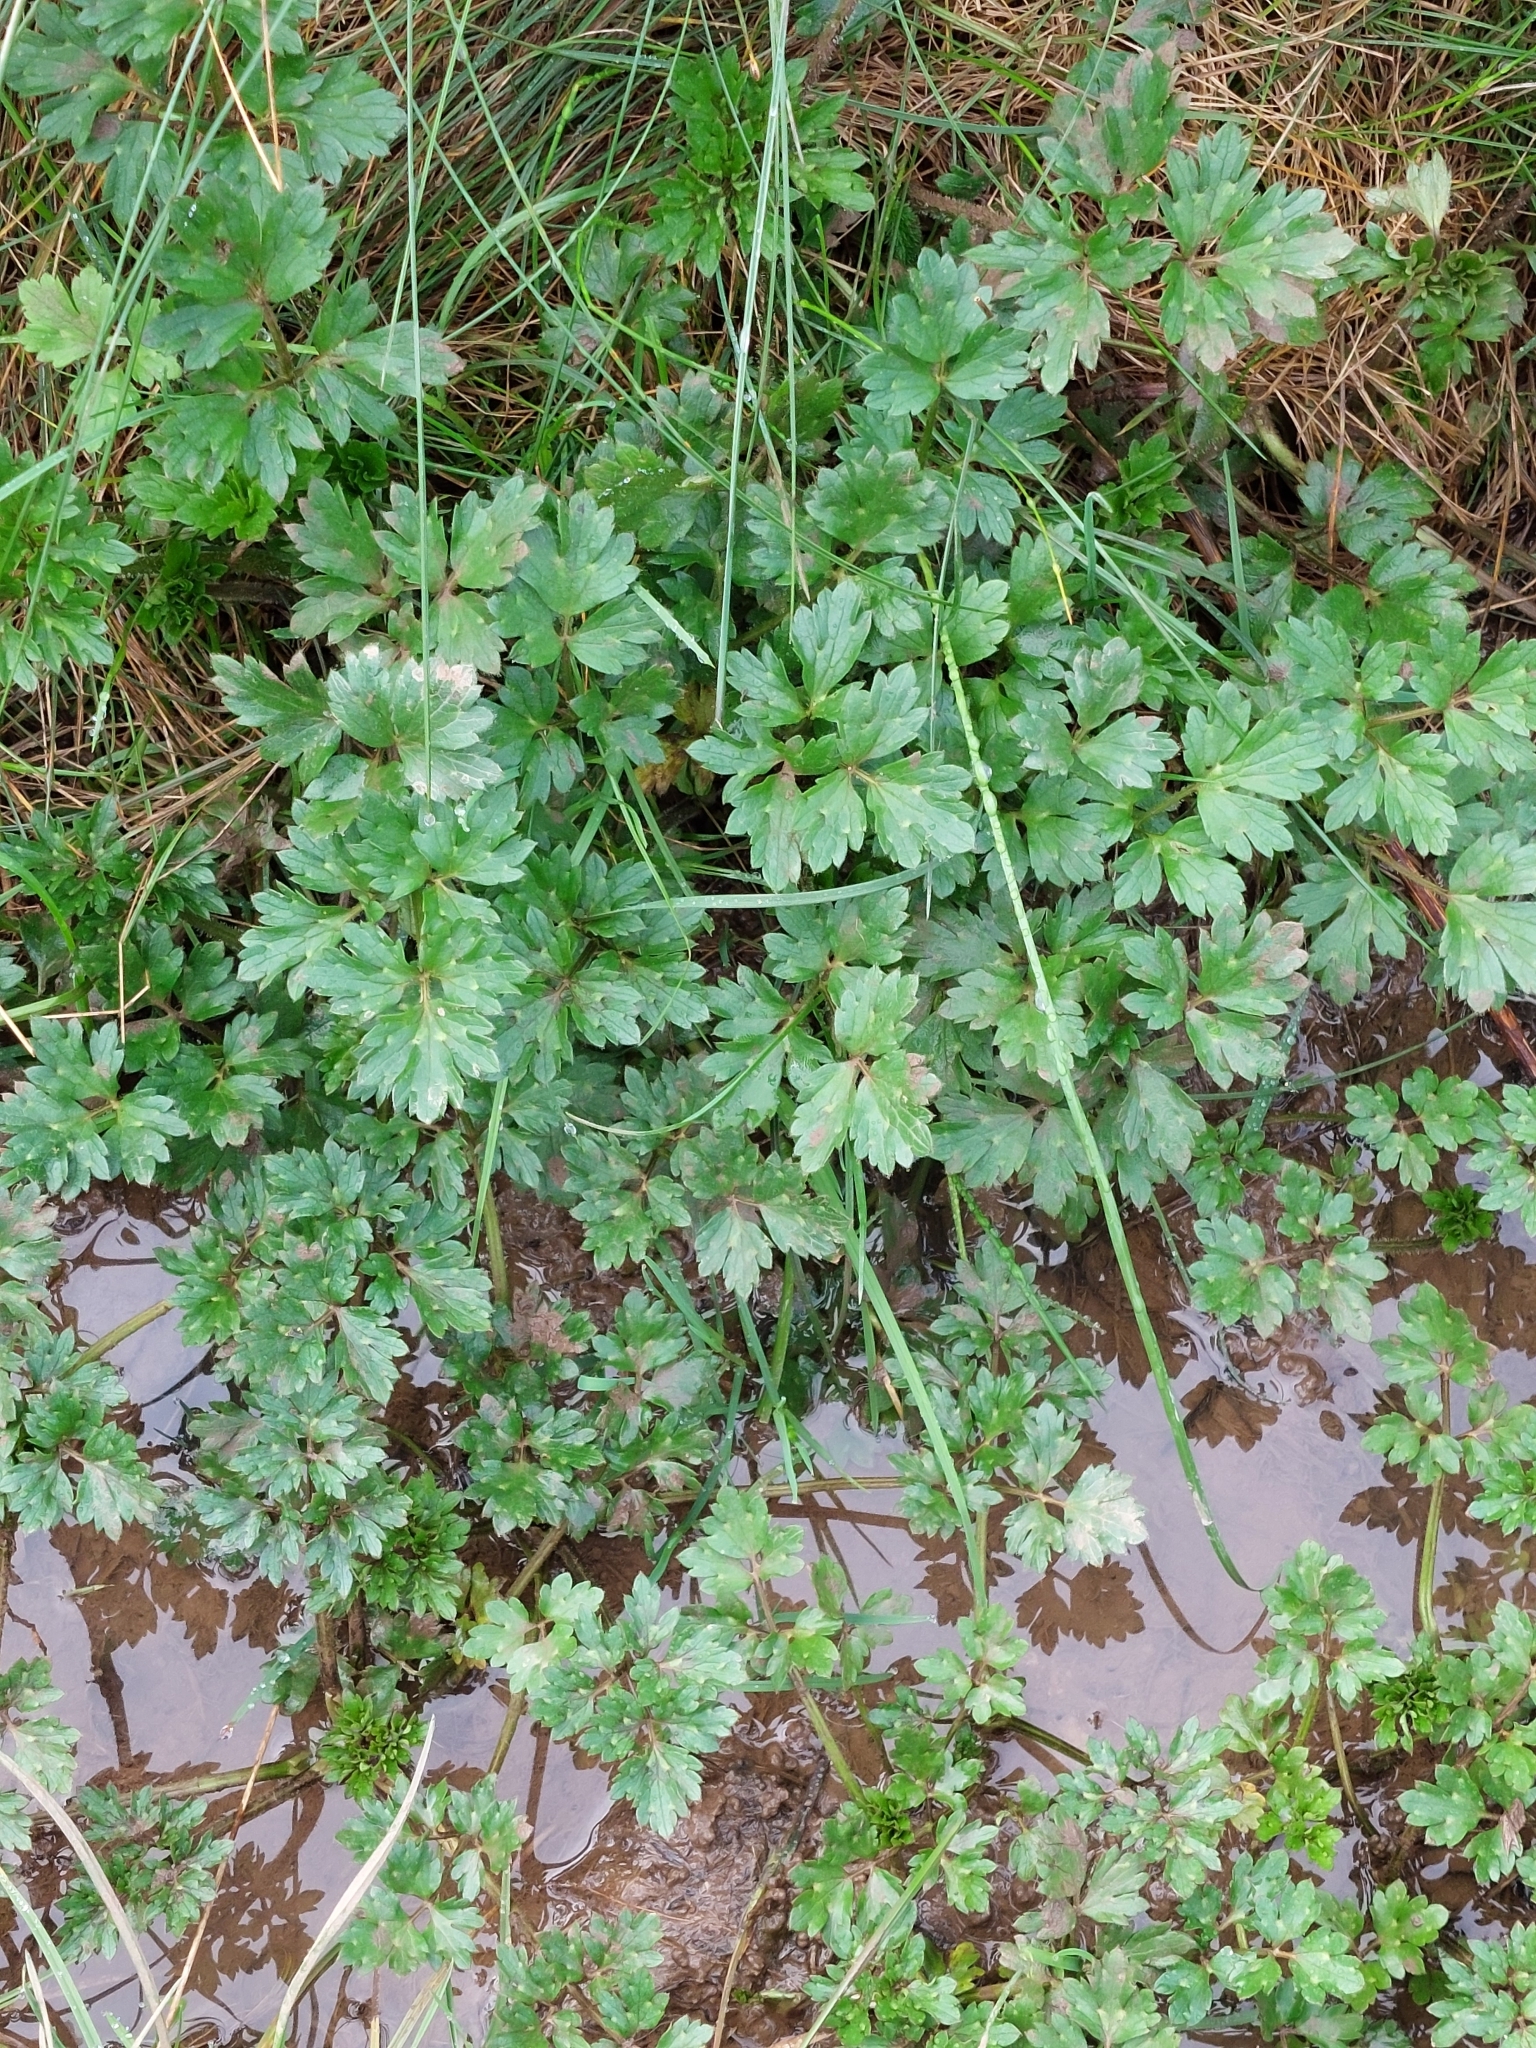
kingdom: Plantae
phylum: Tracheophyta
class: Magnoliopsida
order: Ranunculales
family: Ranunculaceae
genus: Ranunculus
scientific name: Ranunculus repens
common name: Creeping buttercup
